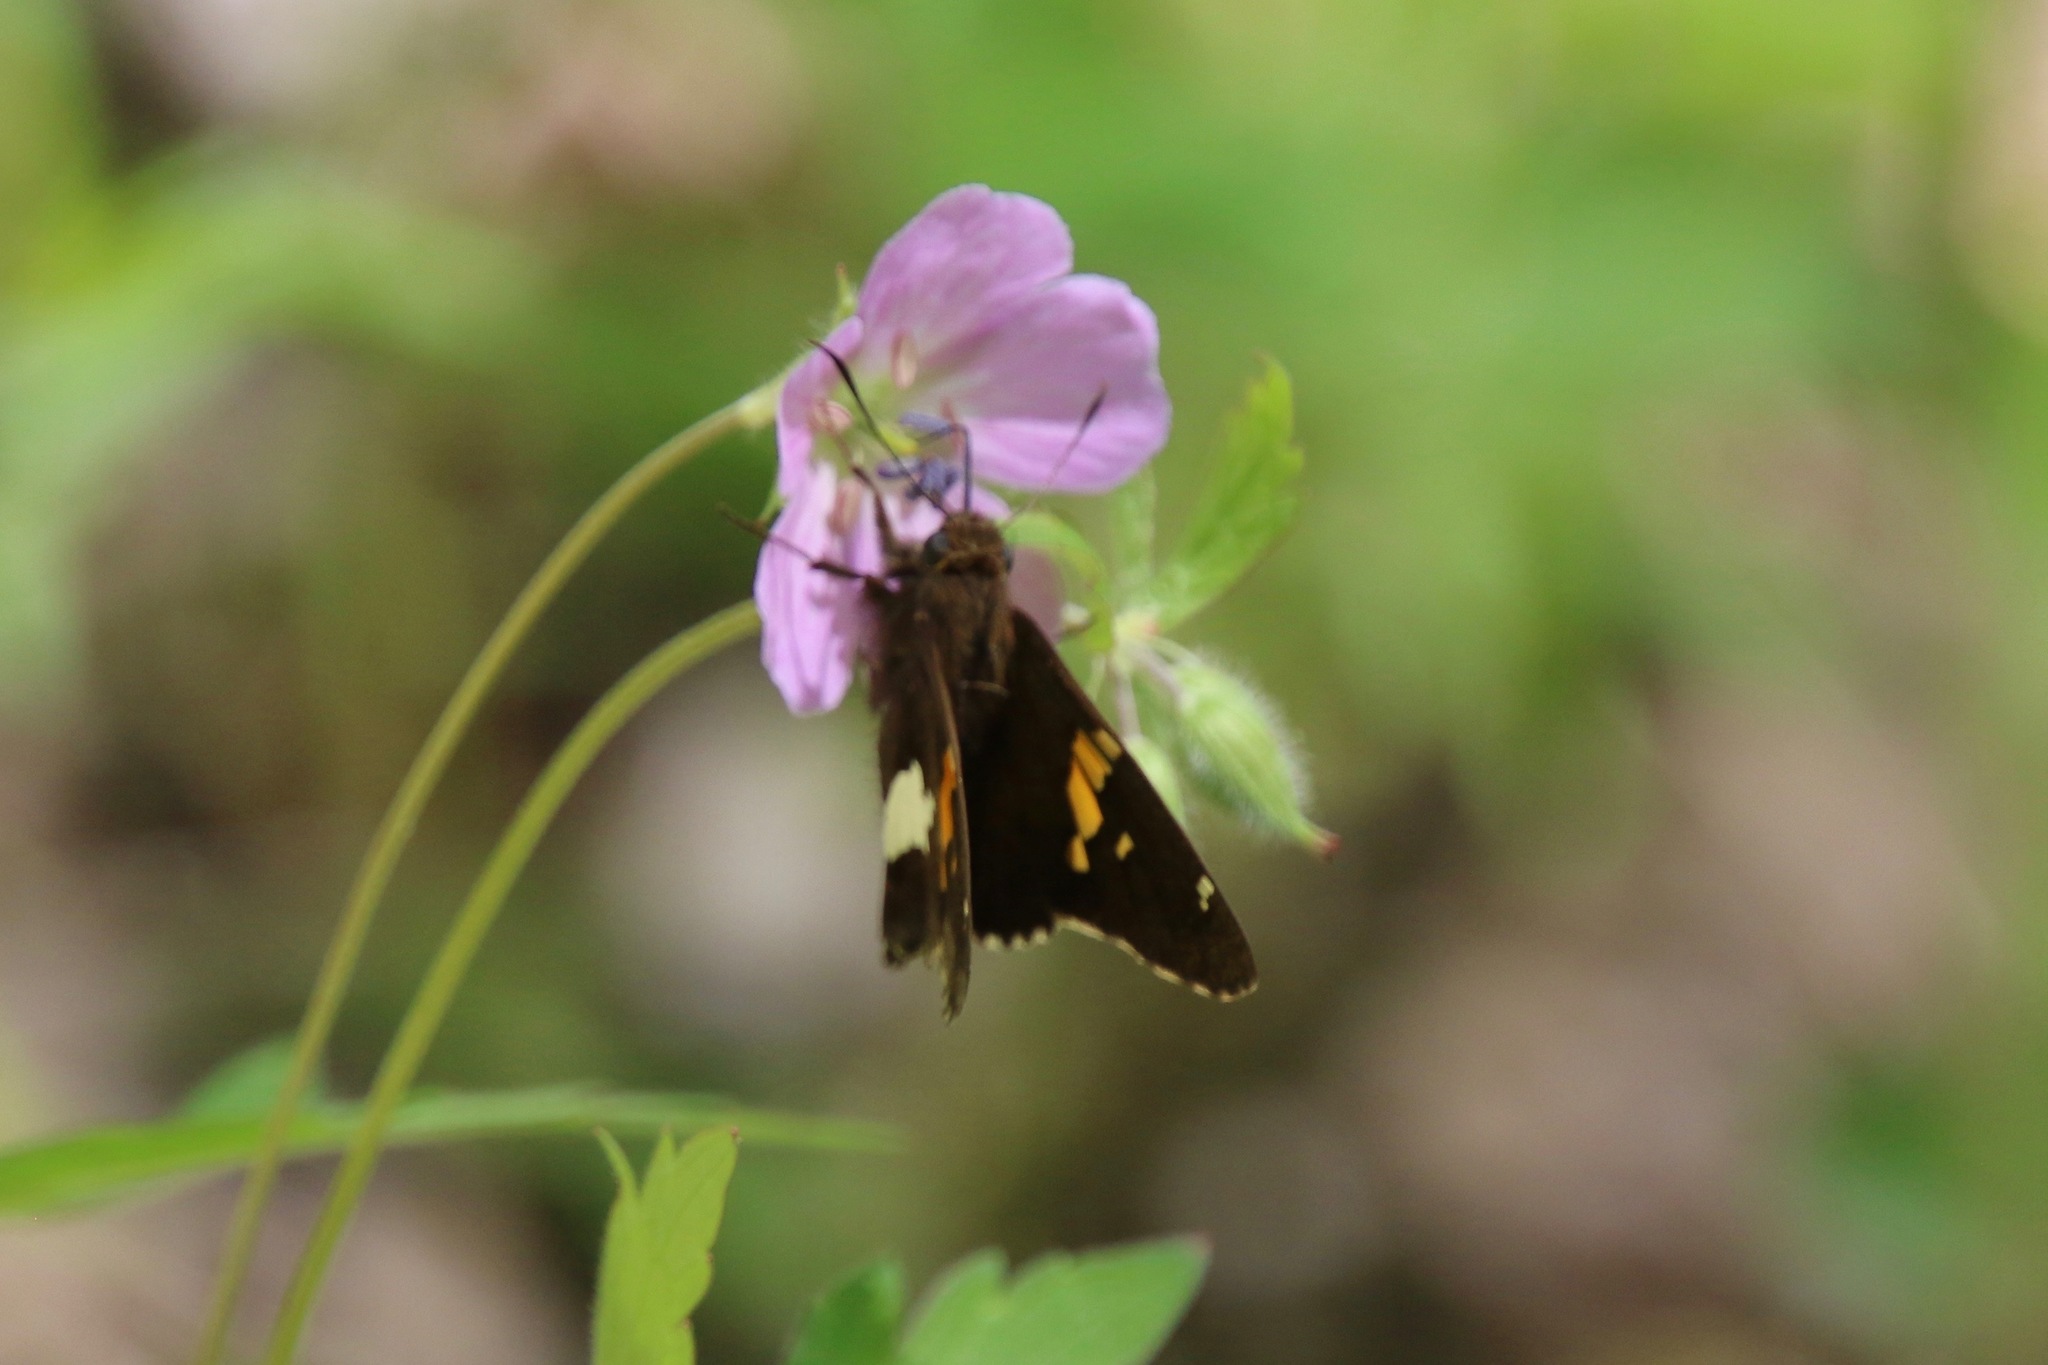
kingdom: Animalia
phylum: Arthropoda
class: Insecta
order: Lepidoptera
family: Hesperiidae
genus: Epargyreus
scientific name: Epargyreus clarus
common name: Silver-spotted skipper
